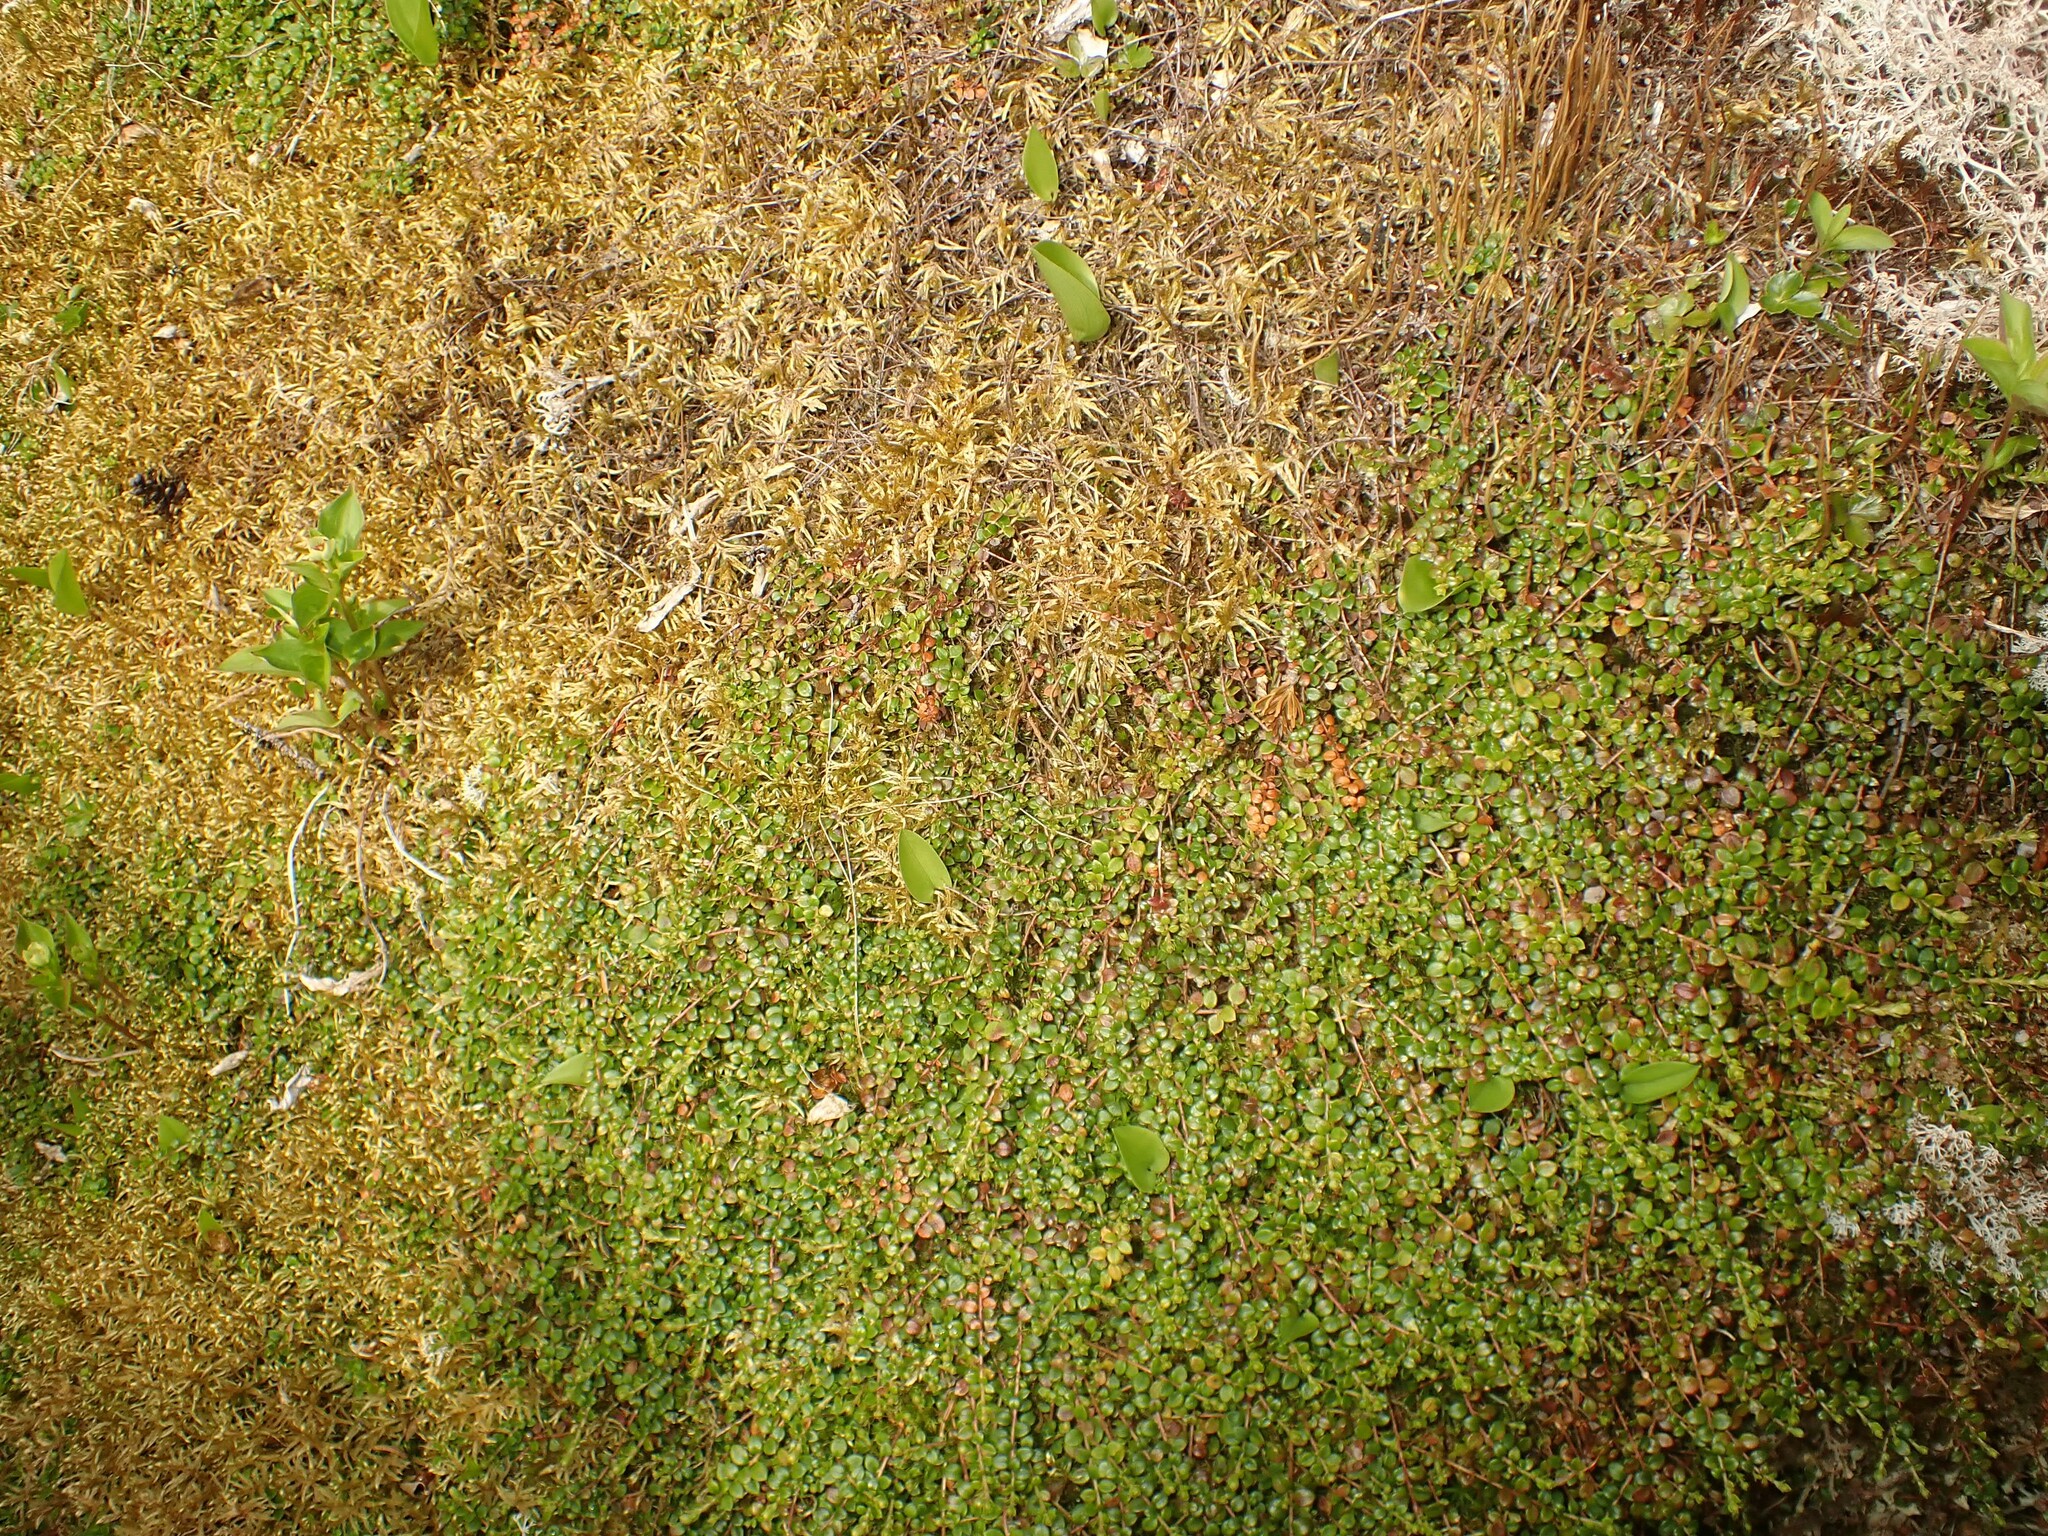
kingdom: Plantae
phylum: Tracheophyta
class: Magnoliopsida
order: Ericales
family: Ericaceae
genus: Gaultheria
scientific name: Gaultheria hispidula
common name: Cancer wintergreen
